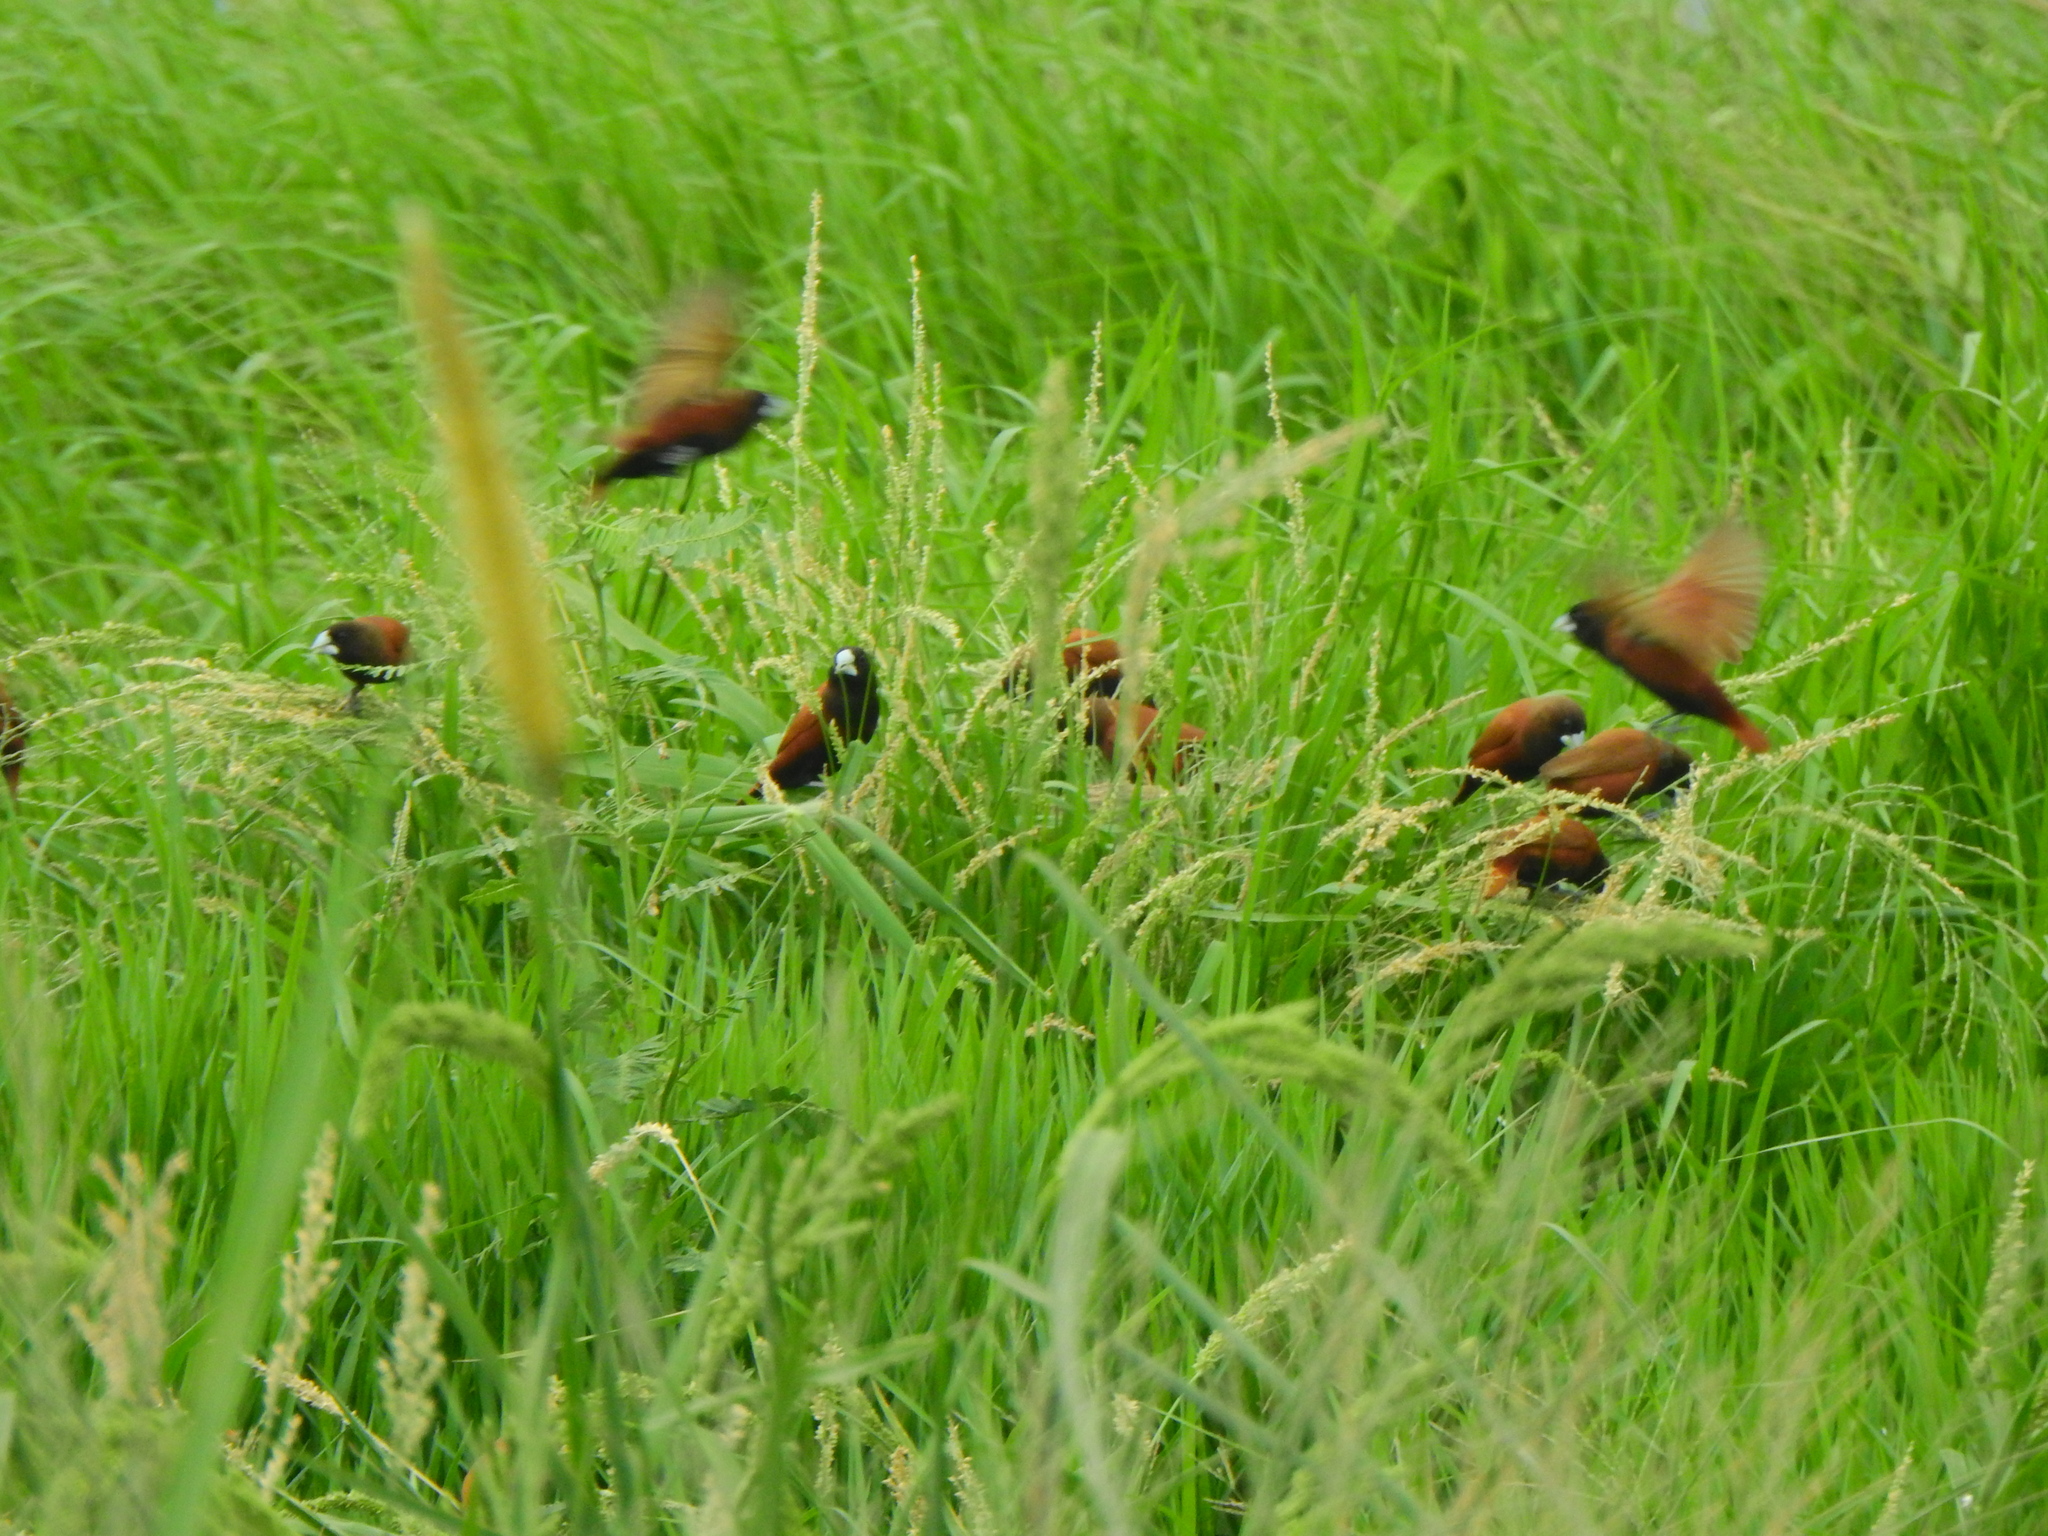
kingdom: Animalia
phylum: Chordata
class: Aves
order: Passeriformes
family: Estrildidae
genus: Lonchura
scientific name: Lonchura atricapilla
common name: Chestnut munia
